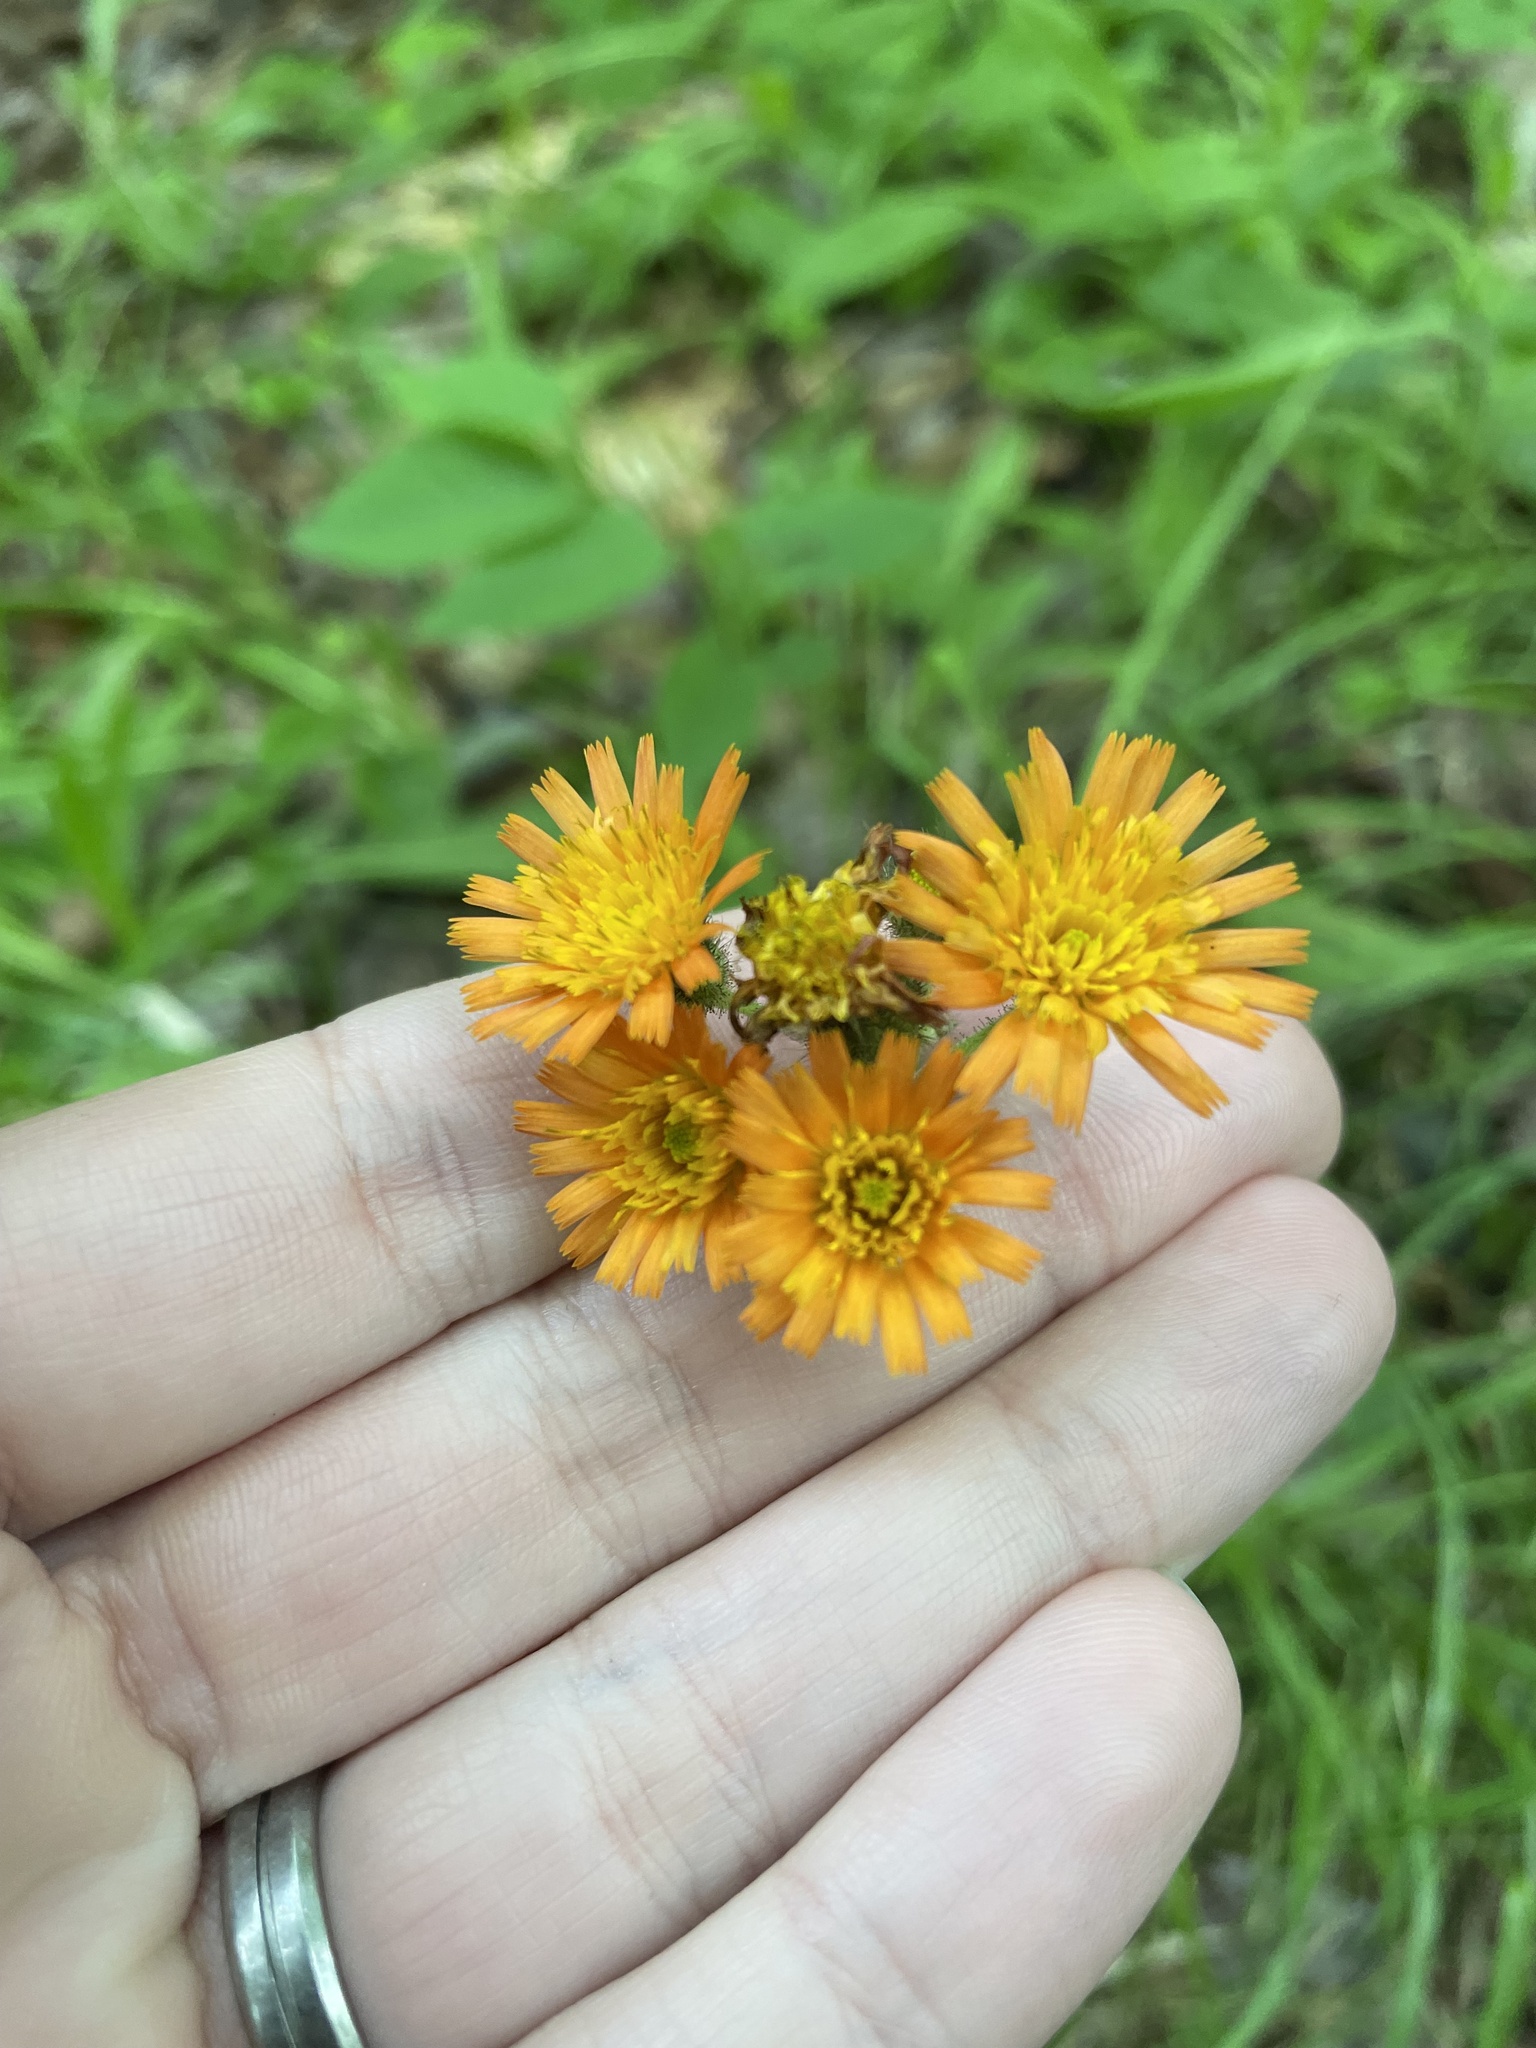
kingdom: Plantae
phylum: Tracheophyta
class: Magnoliopsida
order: Asterales
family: Asteraceae
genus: Pilosella
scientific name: Pilosella aurantiaca
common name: Fox-and-cubs
